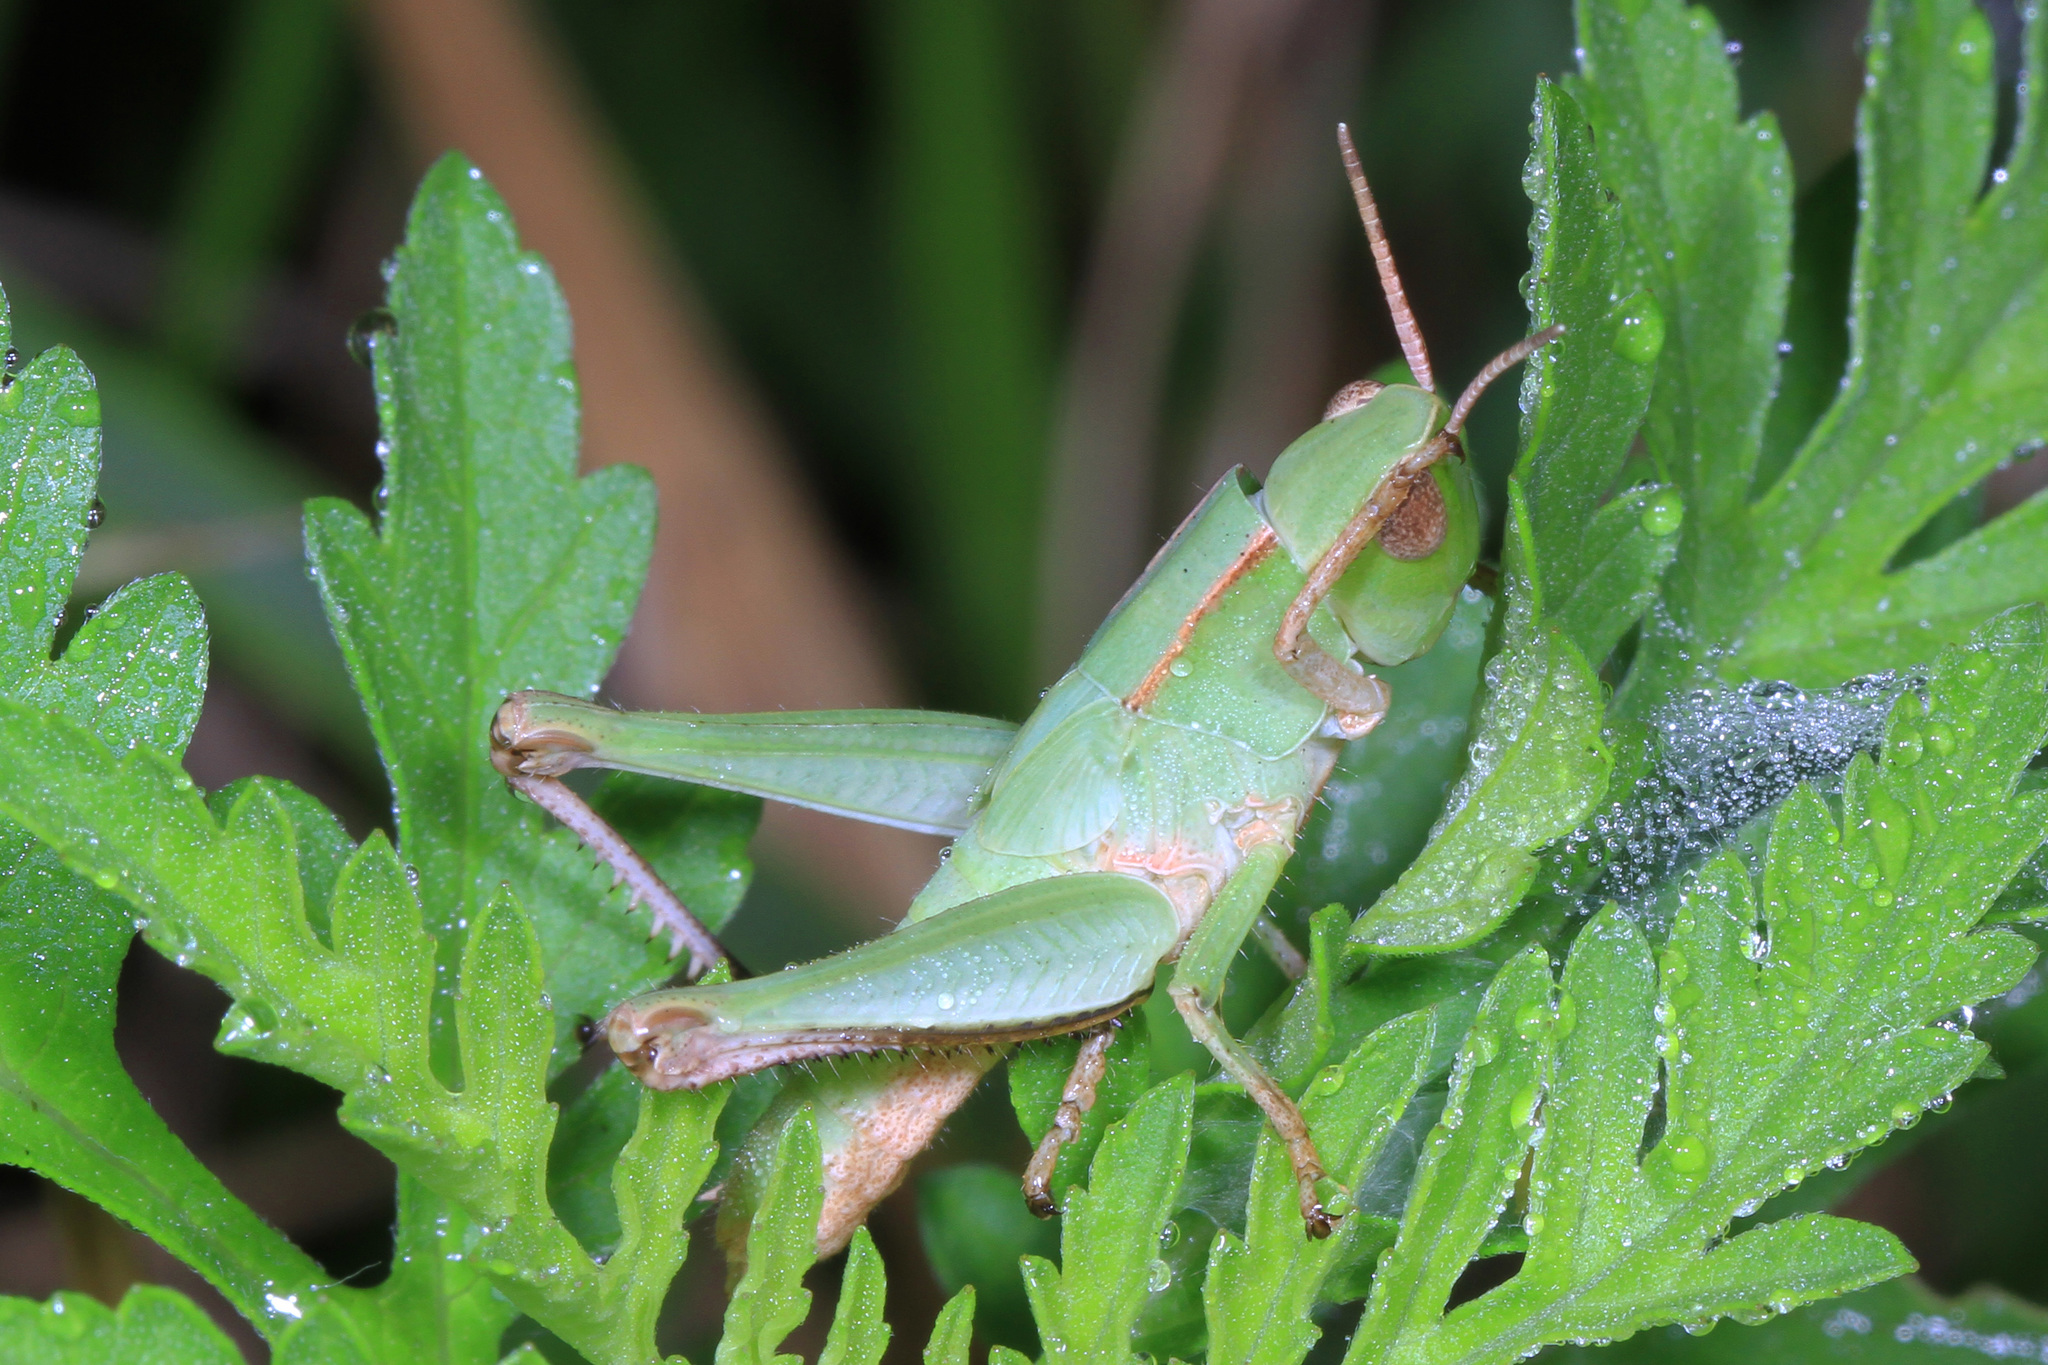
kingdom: Animalia
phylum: Arthropoda
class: Insecta
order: Orthoptera
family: Acrididae
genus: Dichromorpha
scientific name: Dichromorpha viridis
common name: Short-winged green grasshopper
